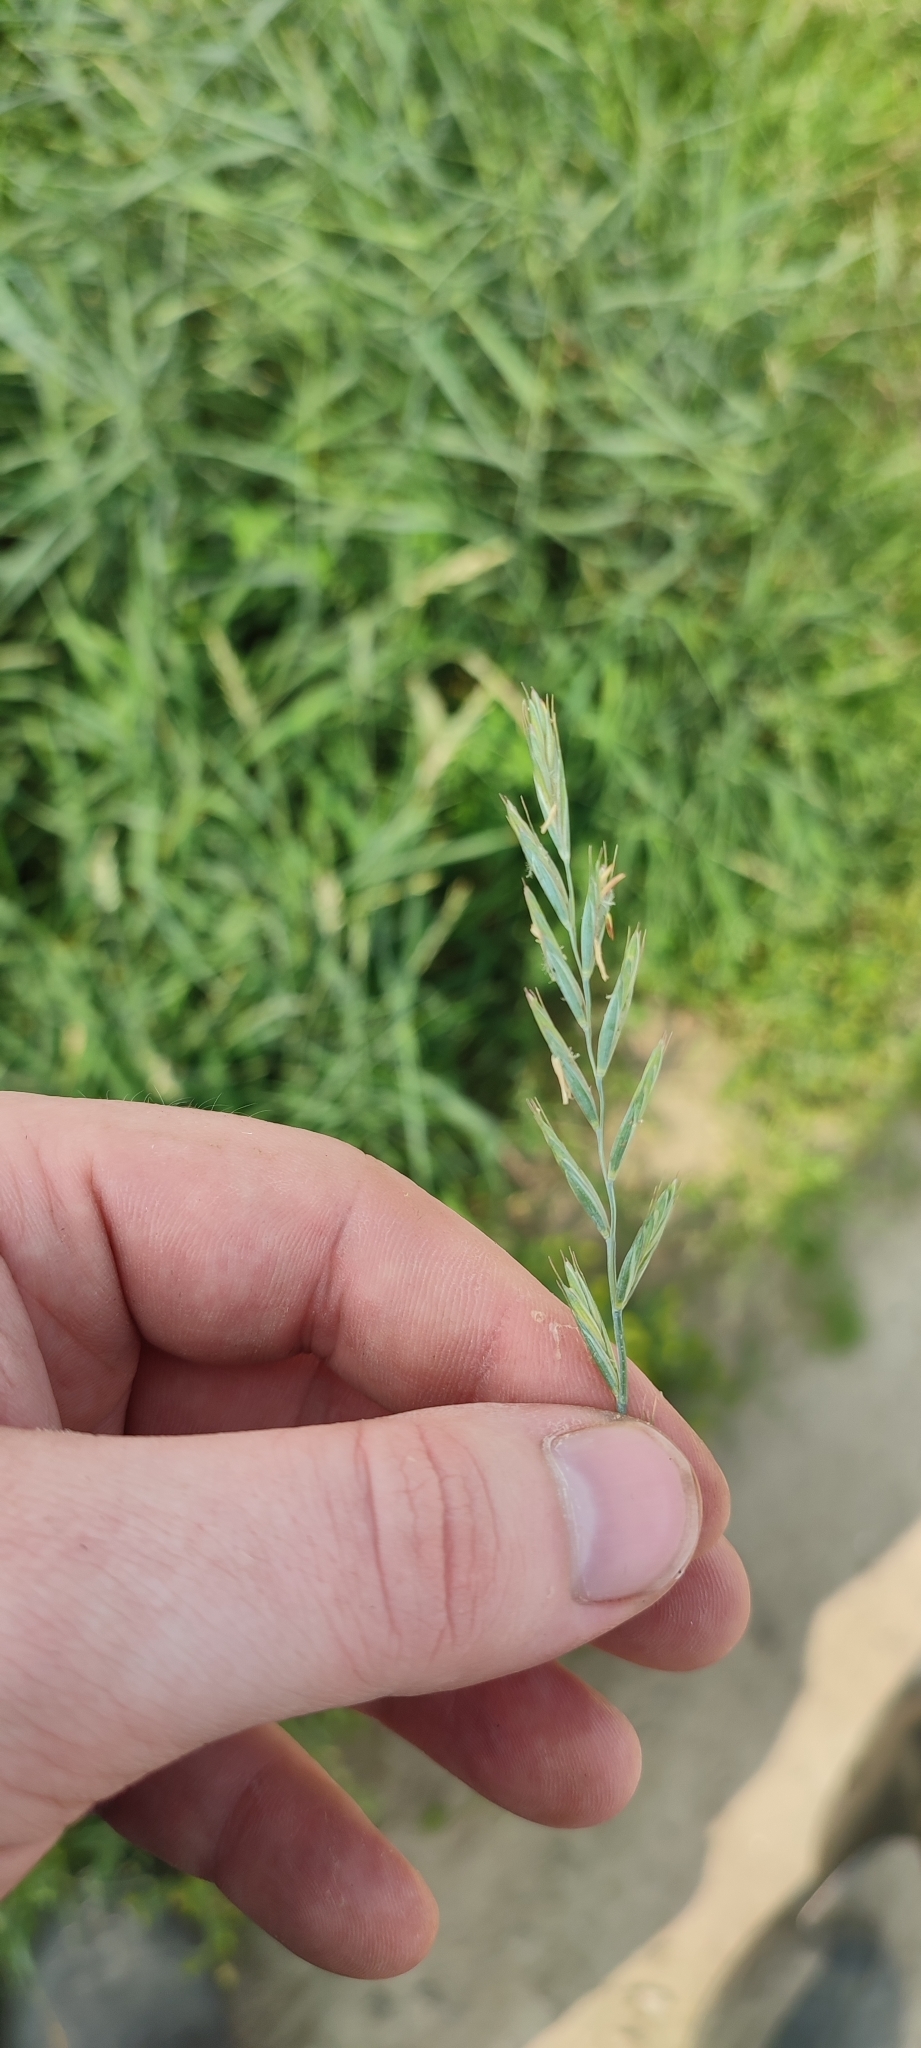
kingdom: Plantae
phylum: Tracheophyta
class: Liliopsida
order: Poales
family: Poaceae
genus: Elymus
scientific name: Elymus repens
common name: Quackgrass
